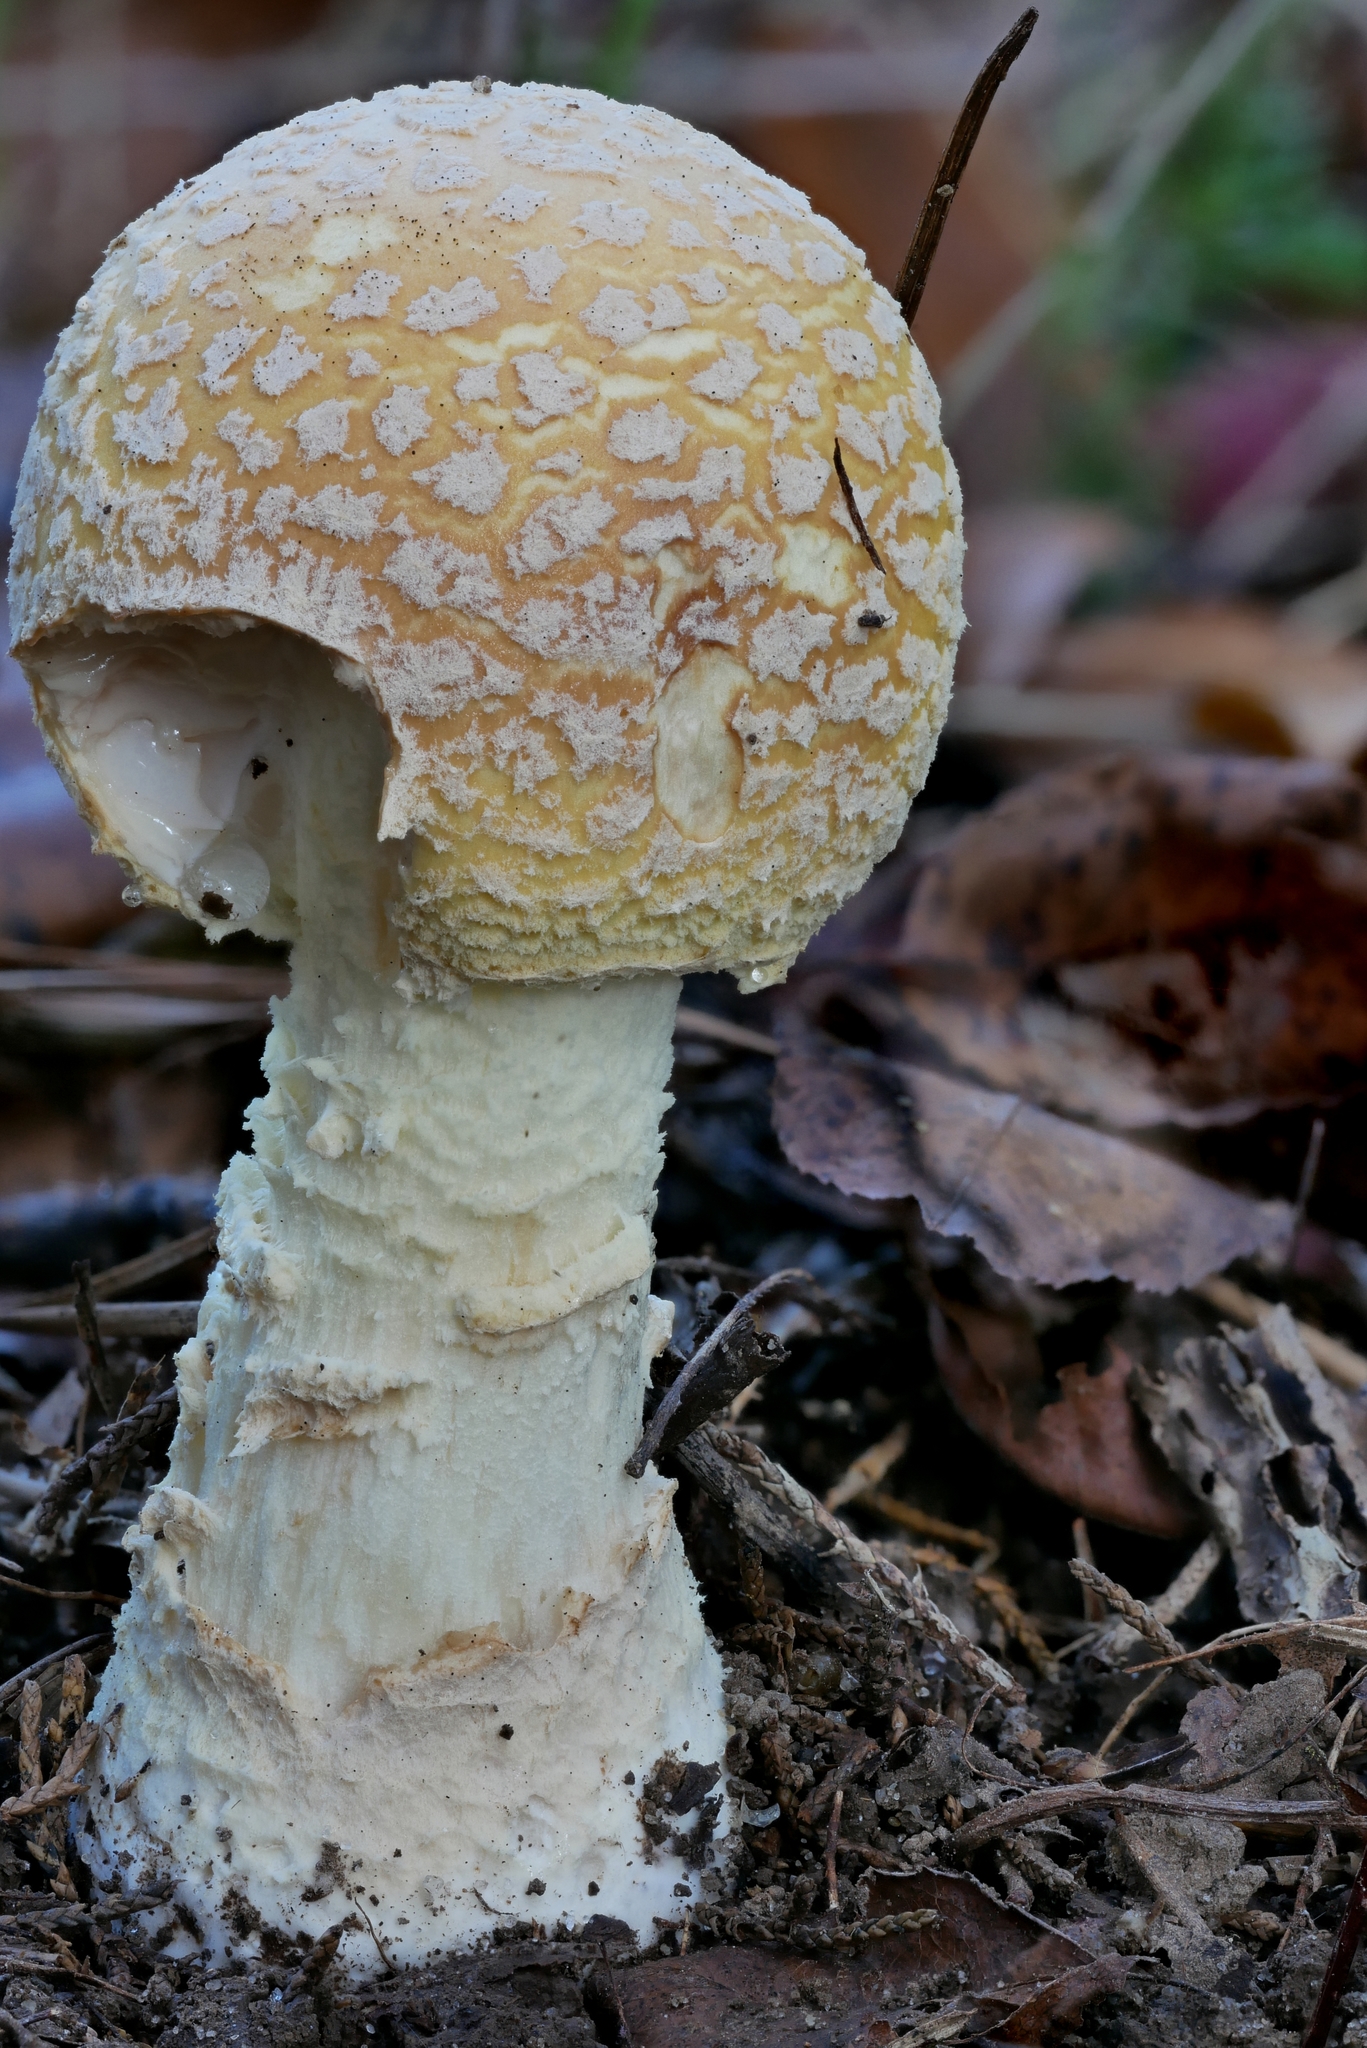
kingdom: Fungi
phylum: Basidiomycota
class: Agaricomycetes
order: Agaricales
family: Amanitaceae
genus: Amanita
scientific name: Amanita
